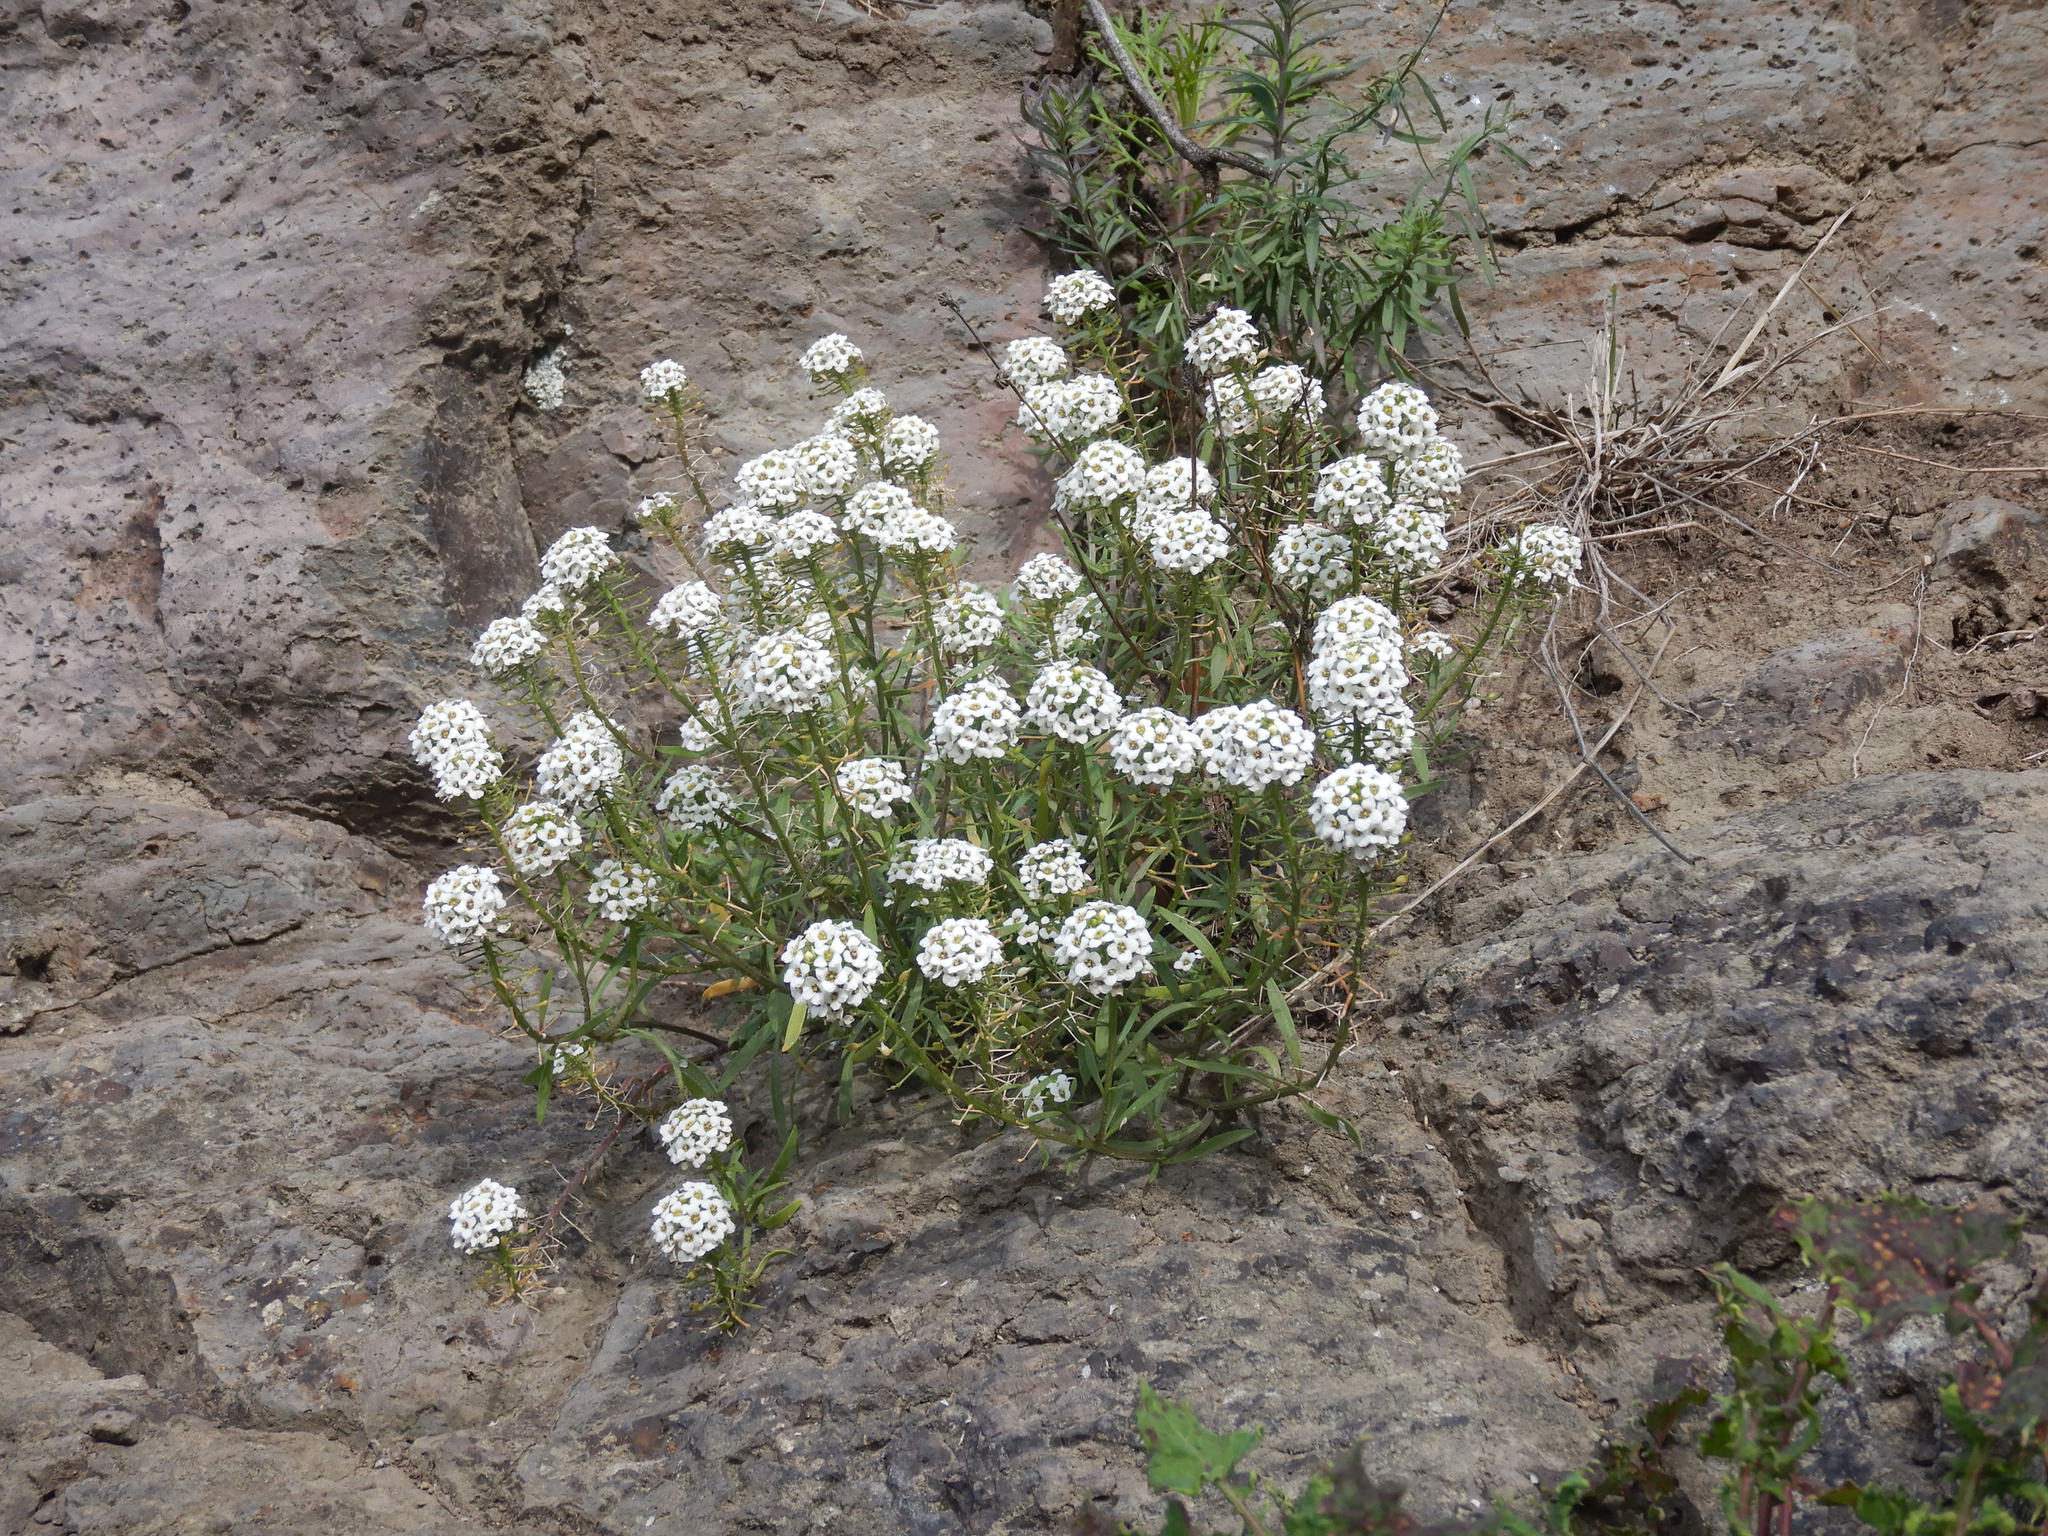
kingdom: Plantae
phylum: Tracheophyta
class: Magnoliopsida
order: Brassicales
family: Brassicaceae
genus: Lobularia
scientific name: Lobularia maritima
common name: Sweet alison
